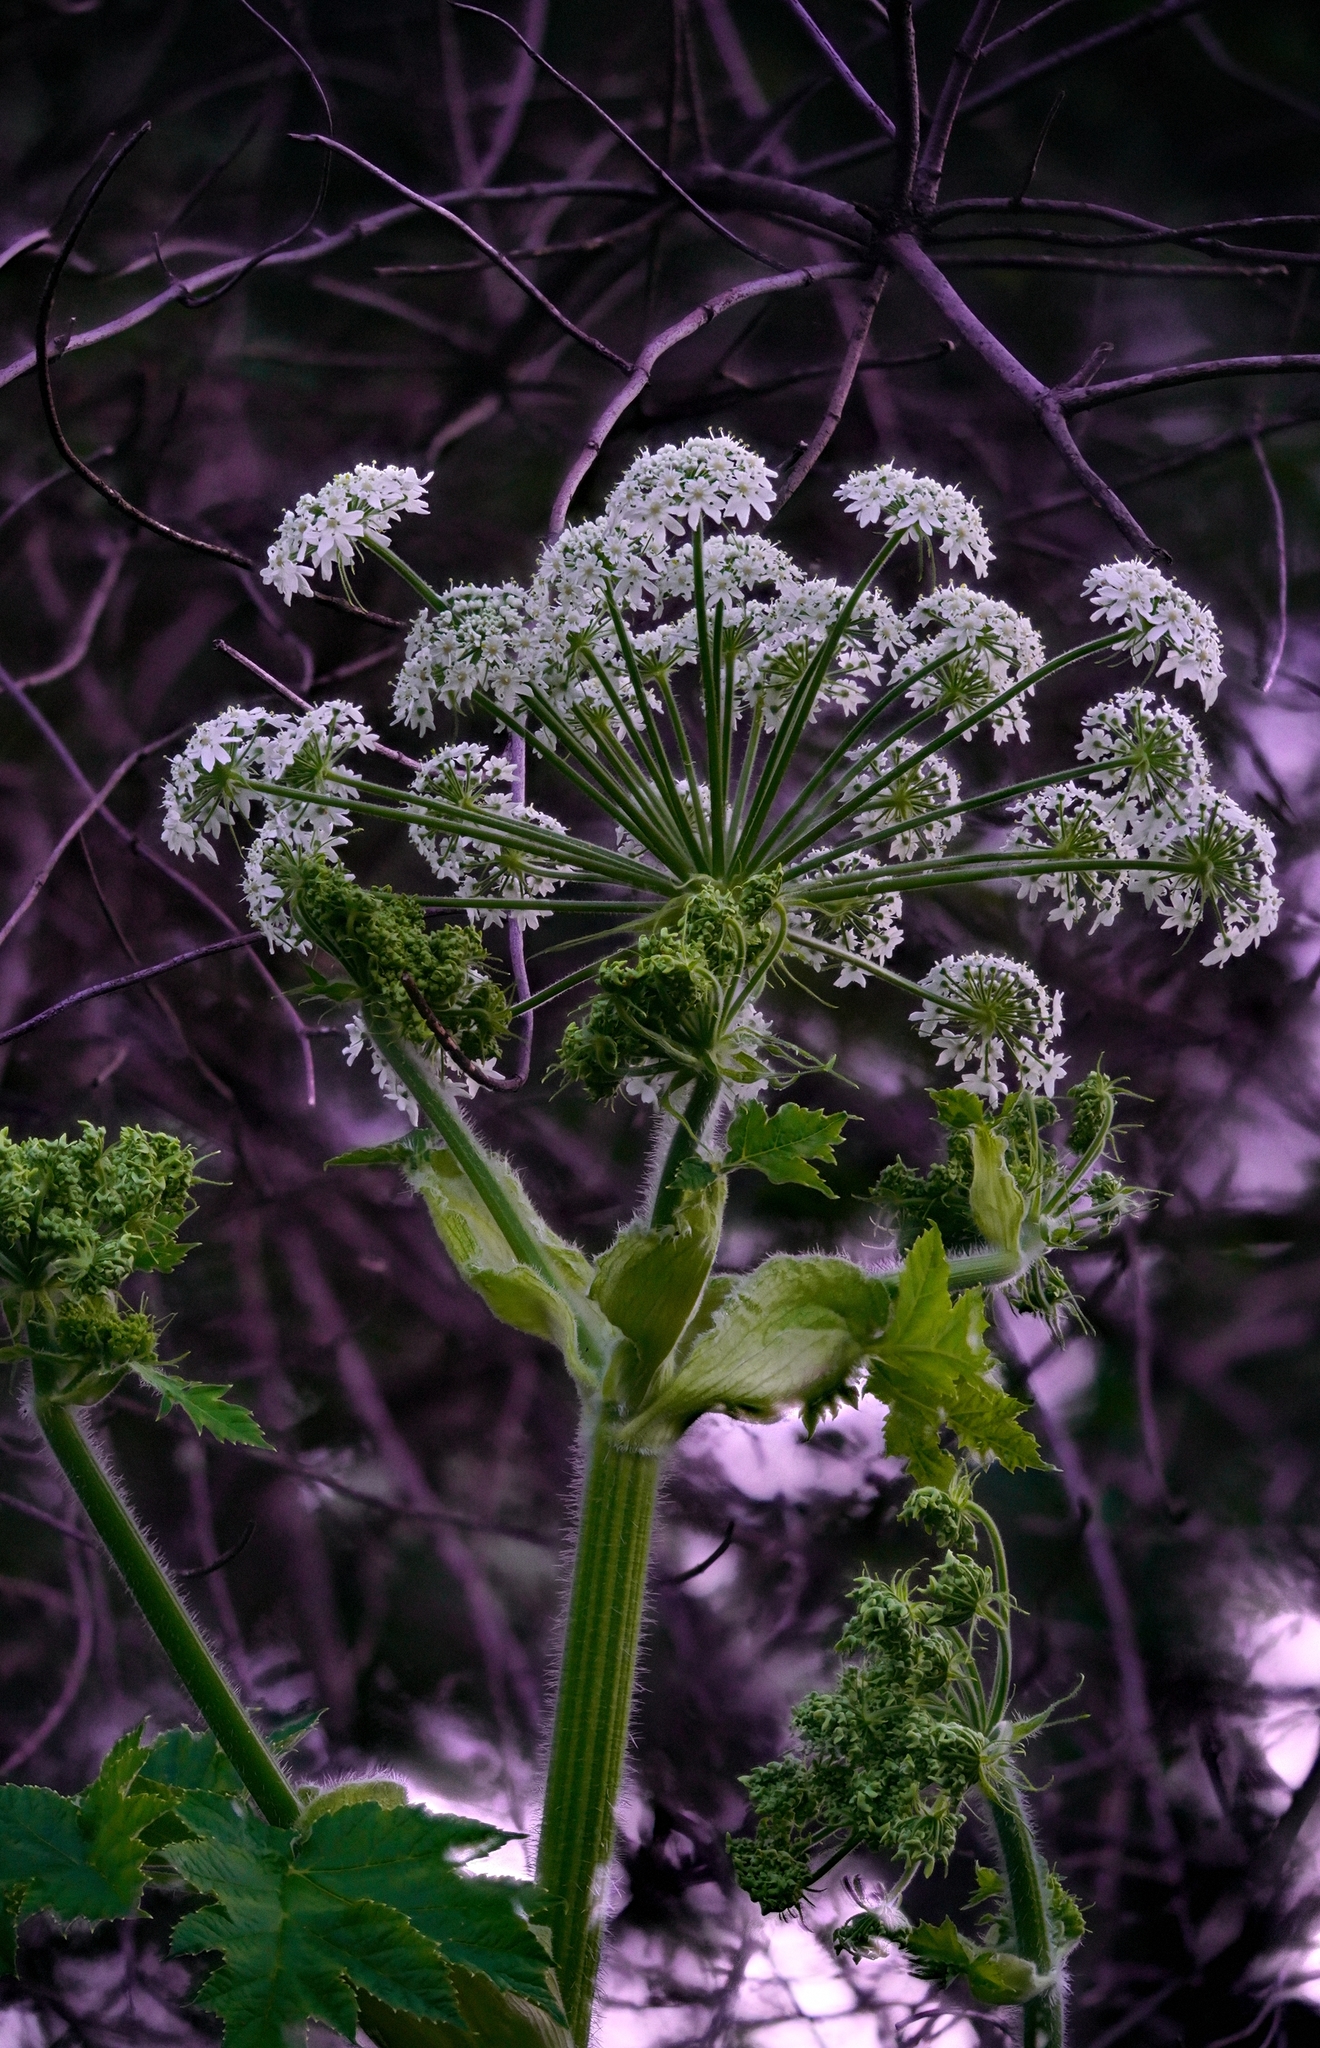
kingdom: Plantae
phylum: Tracheophyta
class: Magnoliopsida
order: Apiales
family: Apiaceae
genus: Heracleum
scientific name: Heracleum maximum
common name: American cow parsnip
